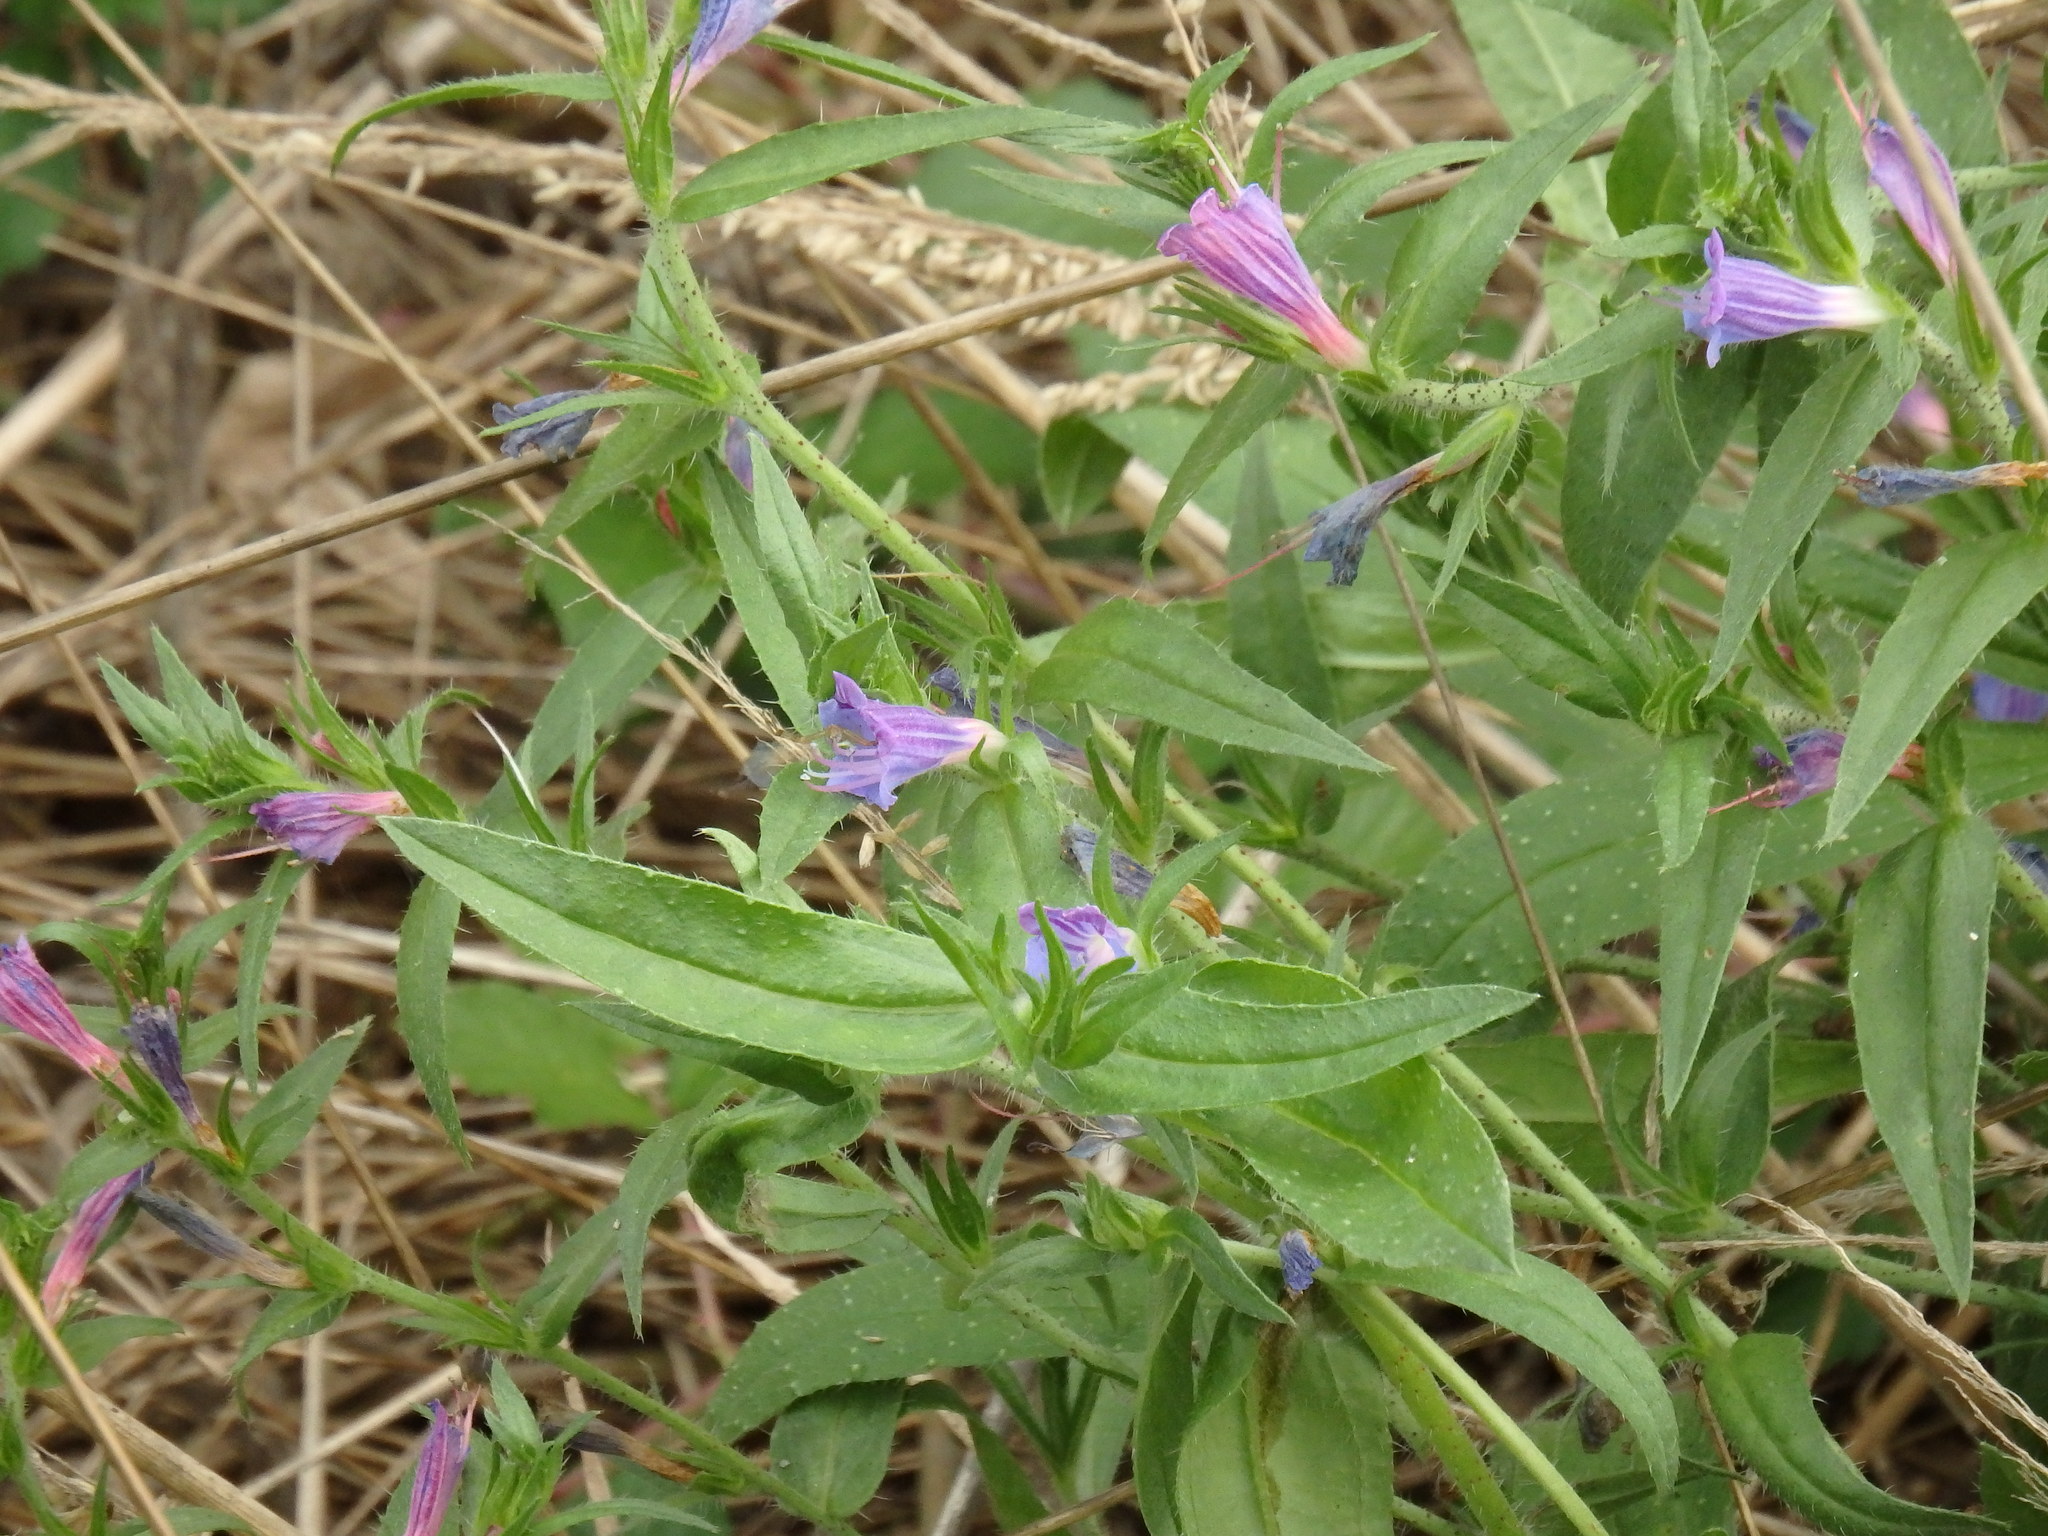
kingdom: Plantae
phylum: Tracheophyta
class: Magnoliopsida
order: Boraginales
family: Boraginaceae
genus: Echium
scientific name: Echium rosulatum
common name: Lax viper's-bugloss
